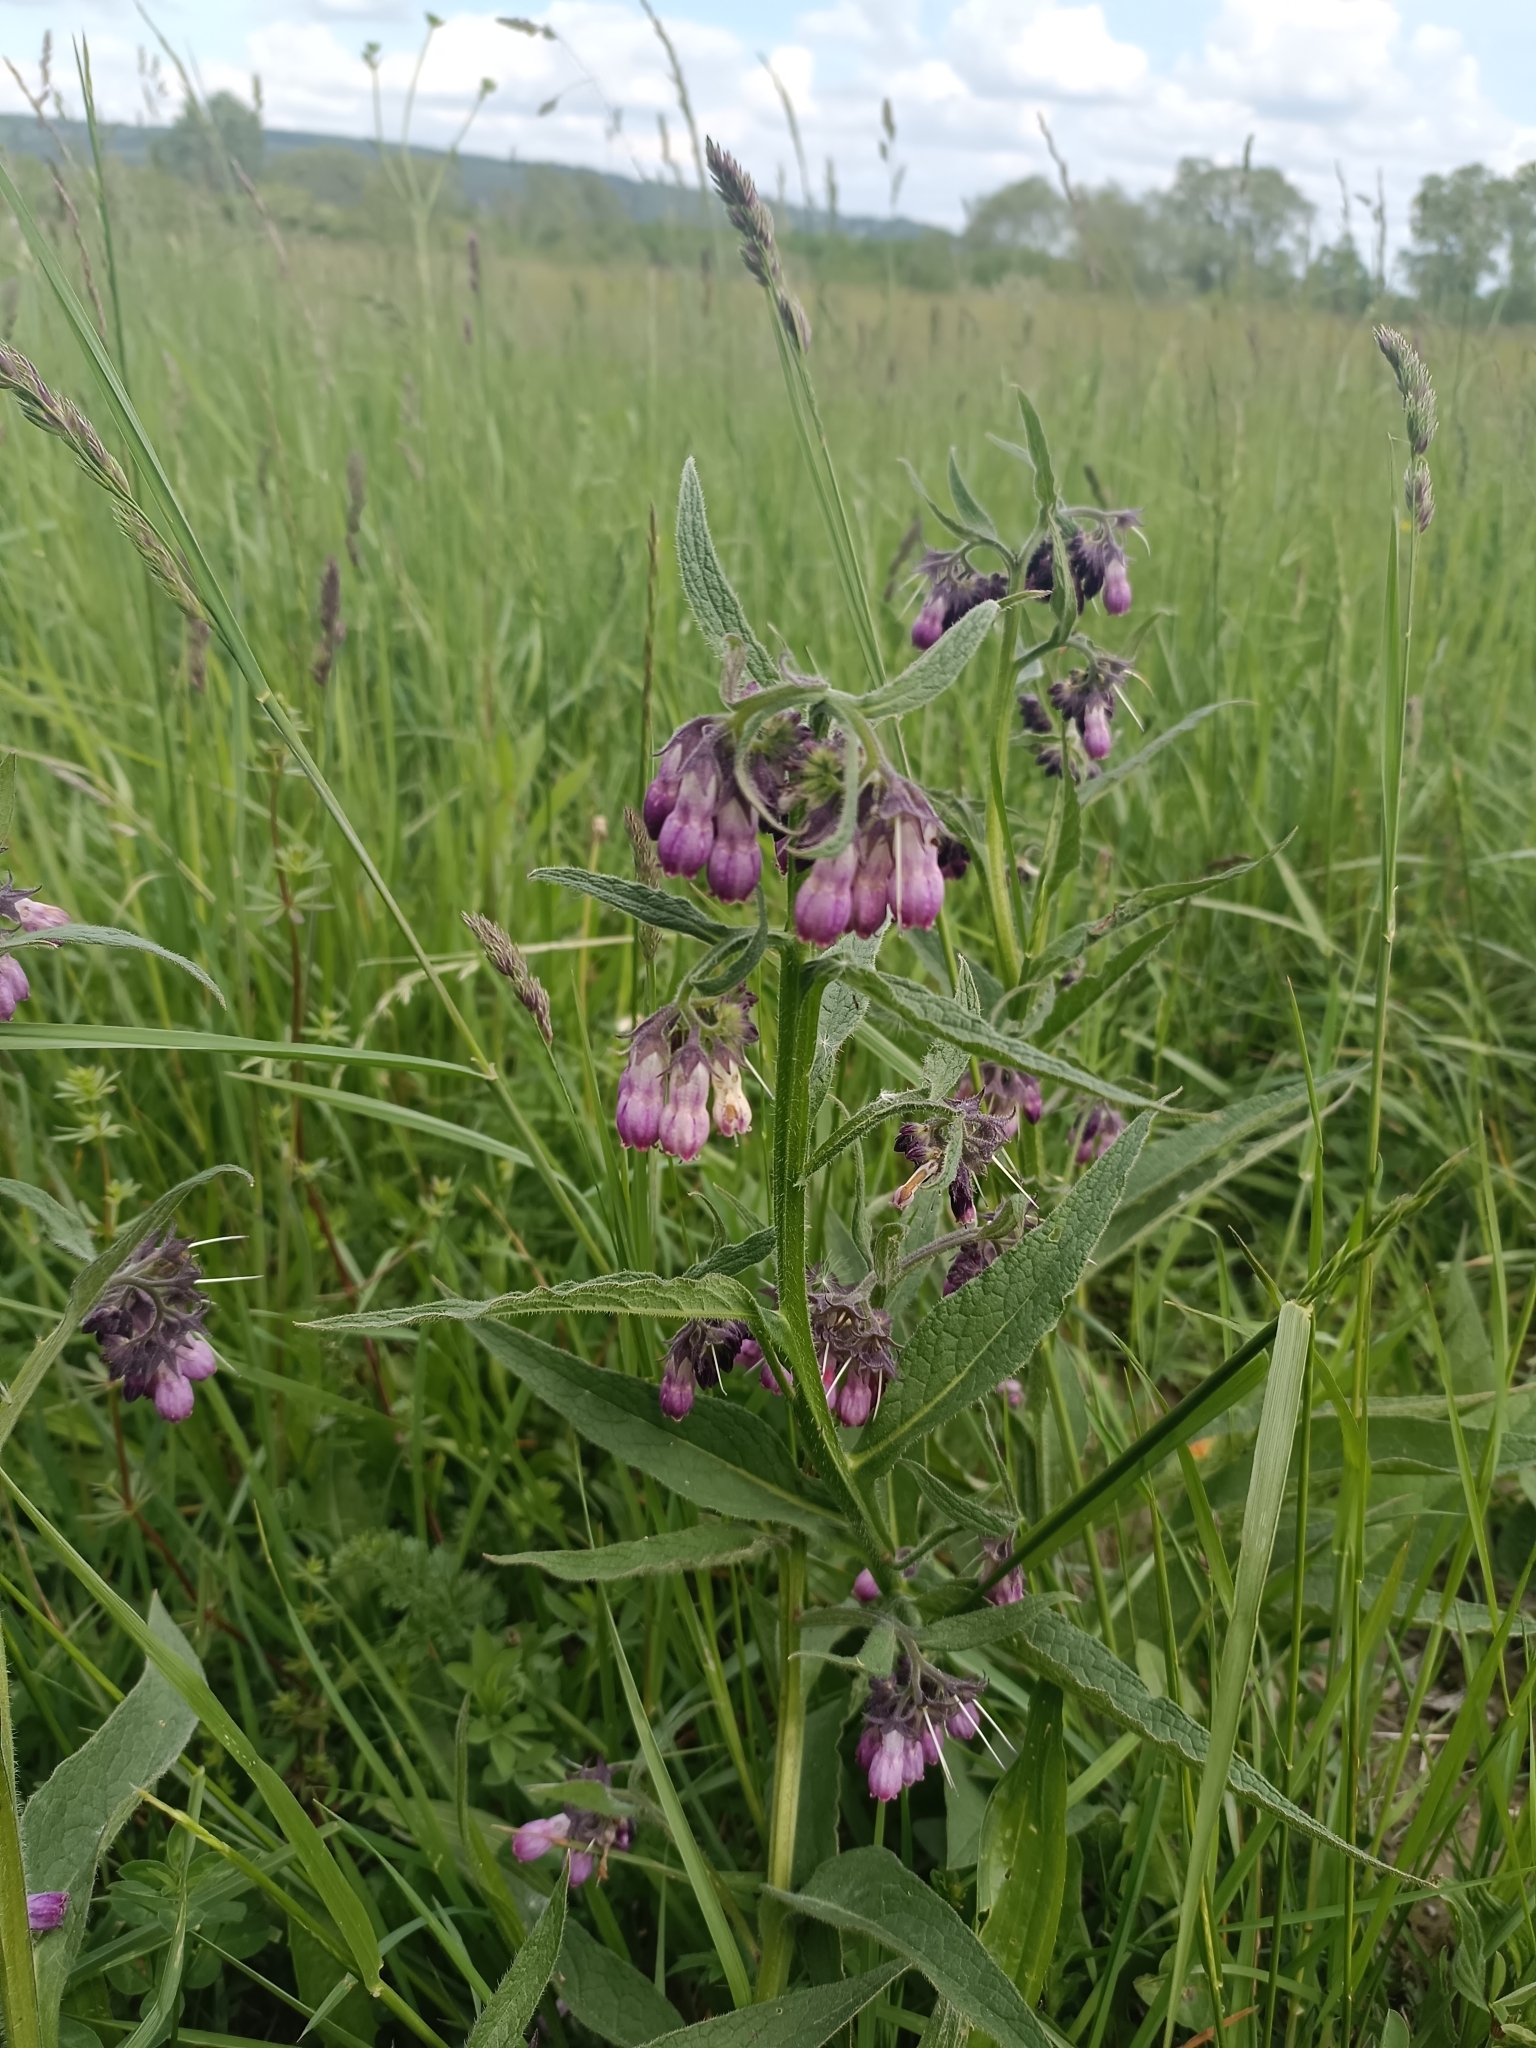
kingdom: Plantae
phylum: Tracheophyta
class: Magnoliopsida
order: Boraginales
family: Boraginaceae
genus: Symphytum
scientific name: Symphytum officinale
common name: Common comfrey
